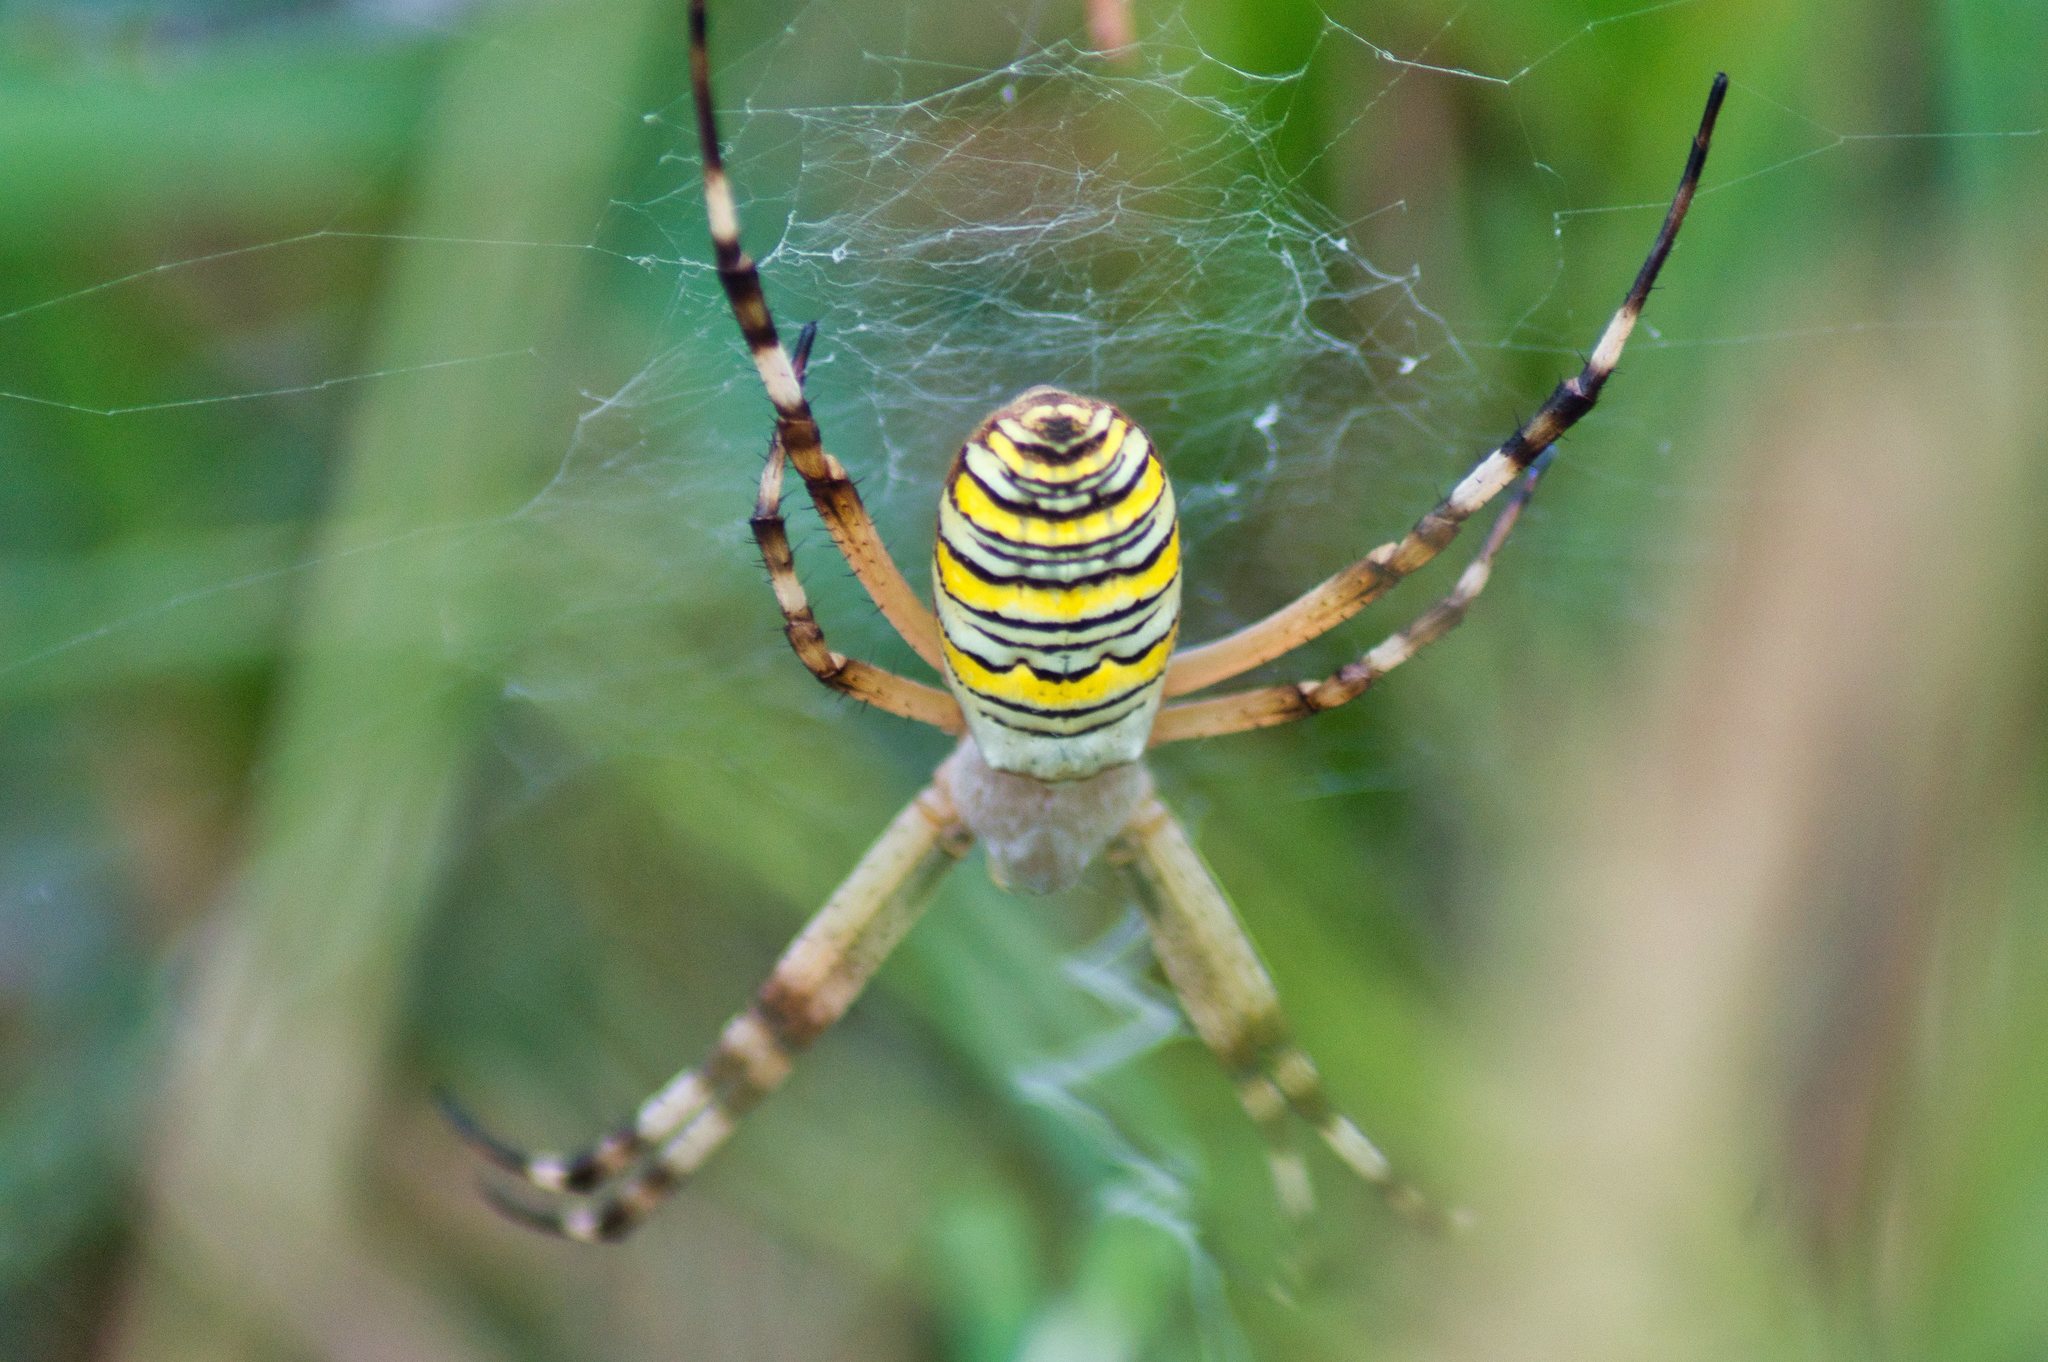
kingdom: Animalia
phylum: Arthropoda
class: Arachnida
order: Araneae
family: Araneidae
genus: Argiope
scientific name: Argiope bruennichi
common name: Wasp spider
